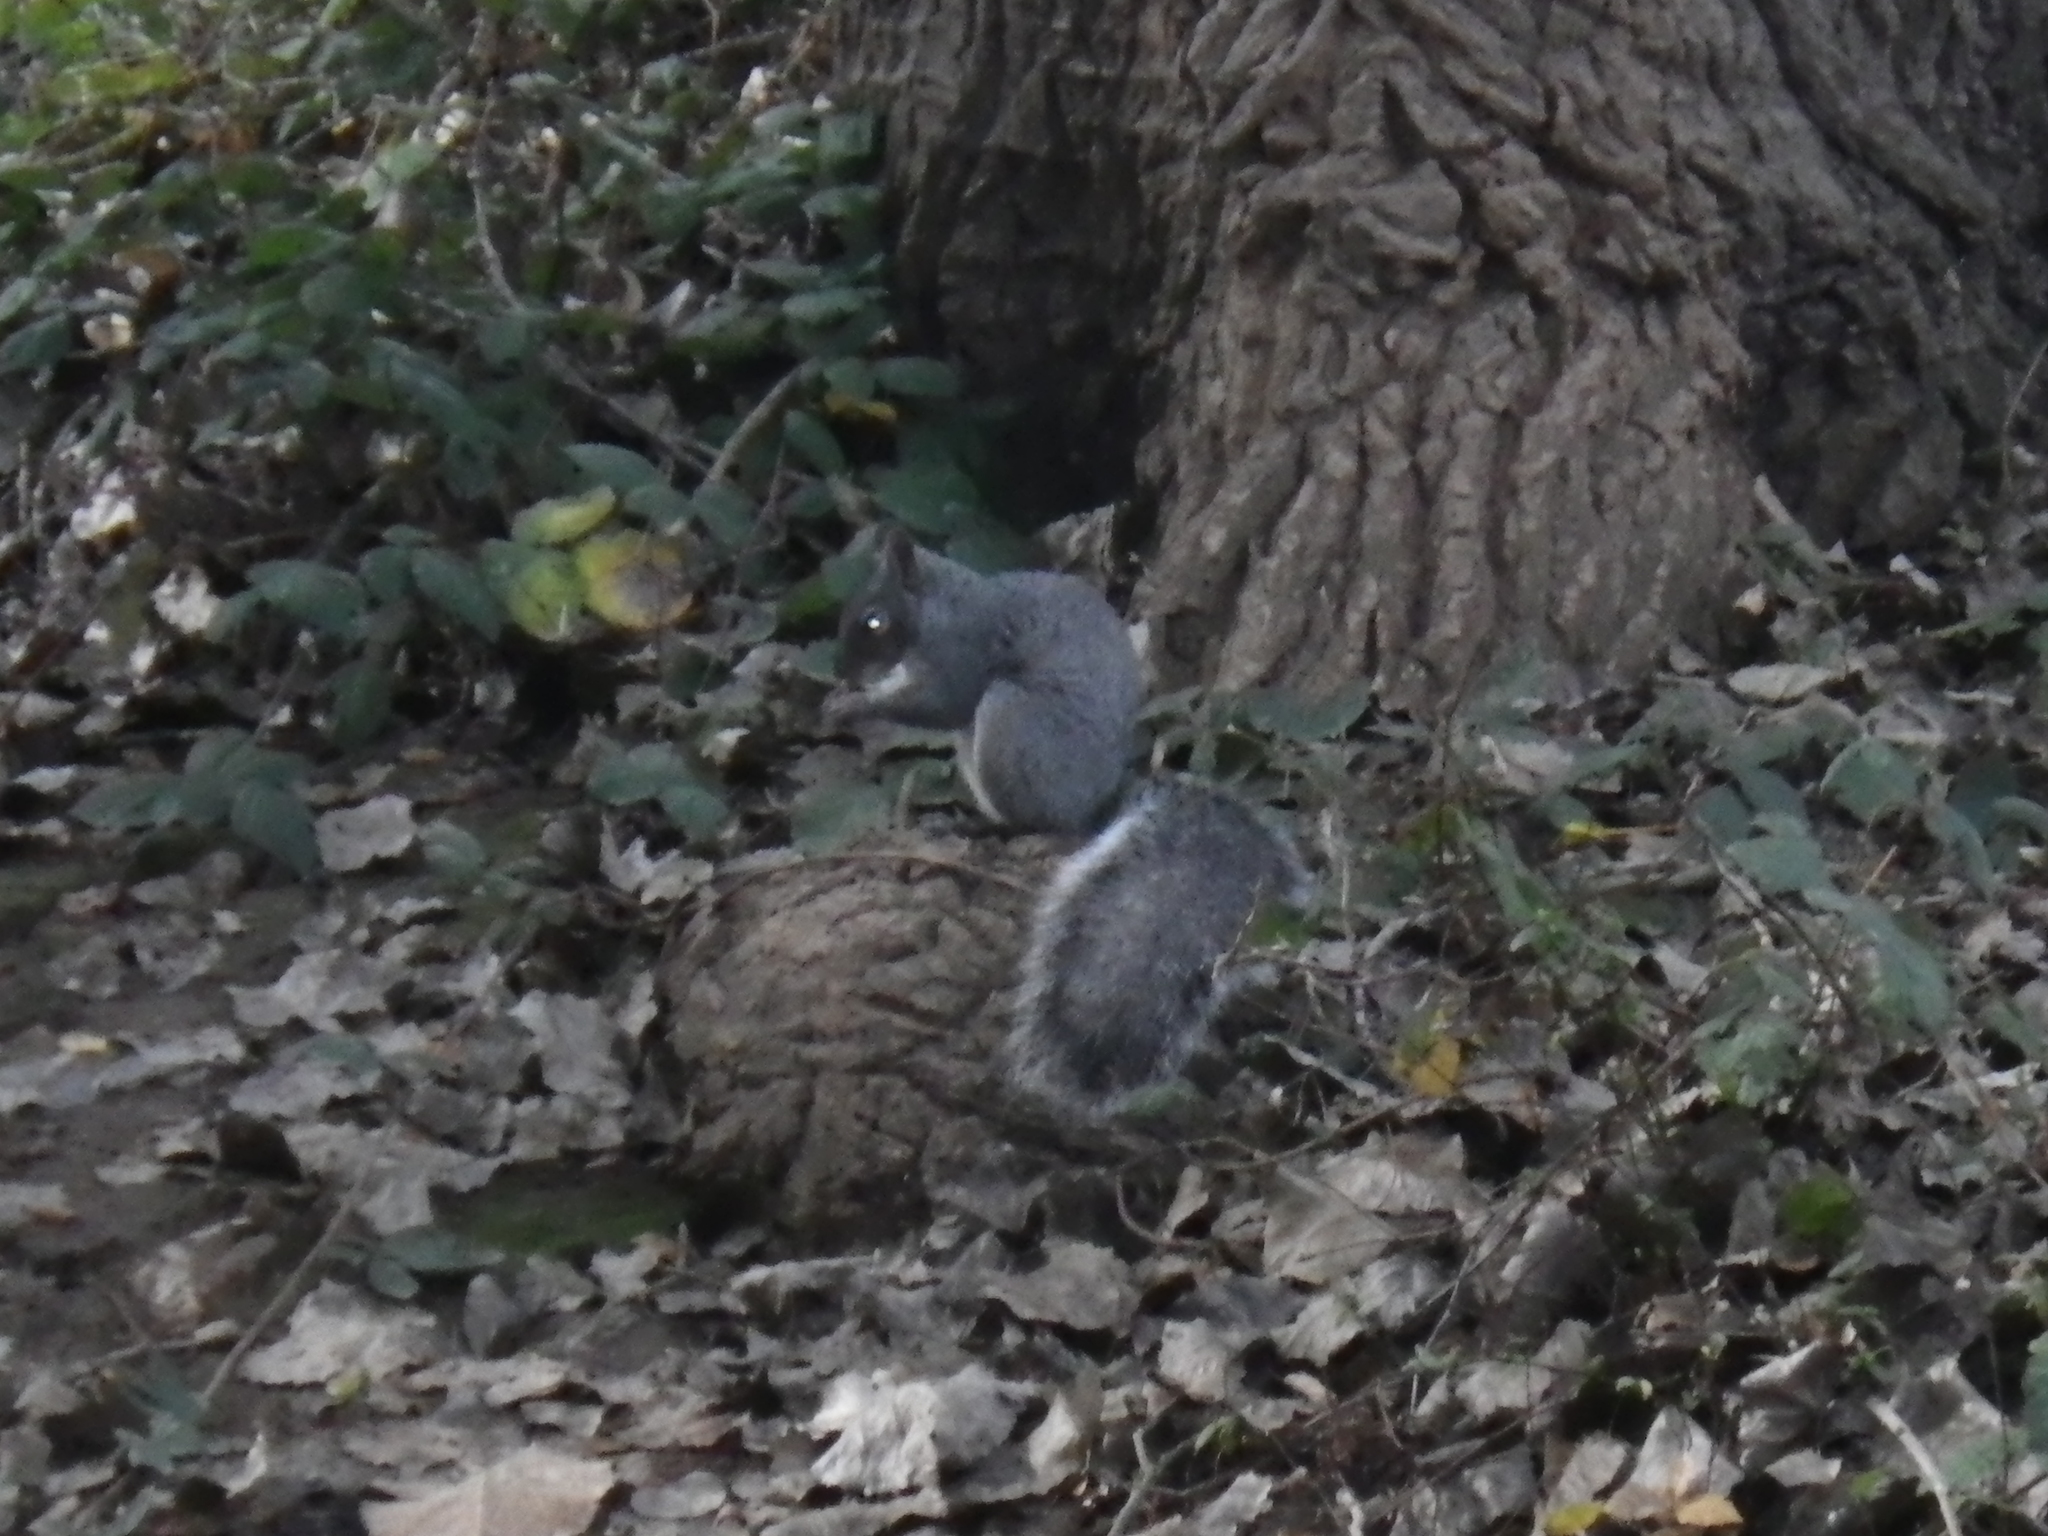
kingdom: Animalia
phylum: Chordata
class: Mammalia
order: Rodentia
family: Sciuridae
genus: Sciurus
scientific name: Sciurus griseus
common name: Western gray squirrel
